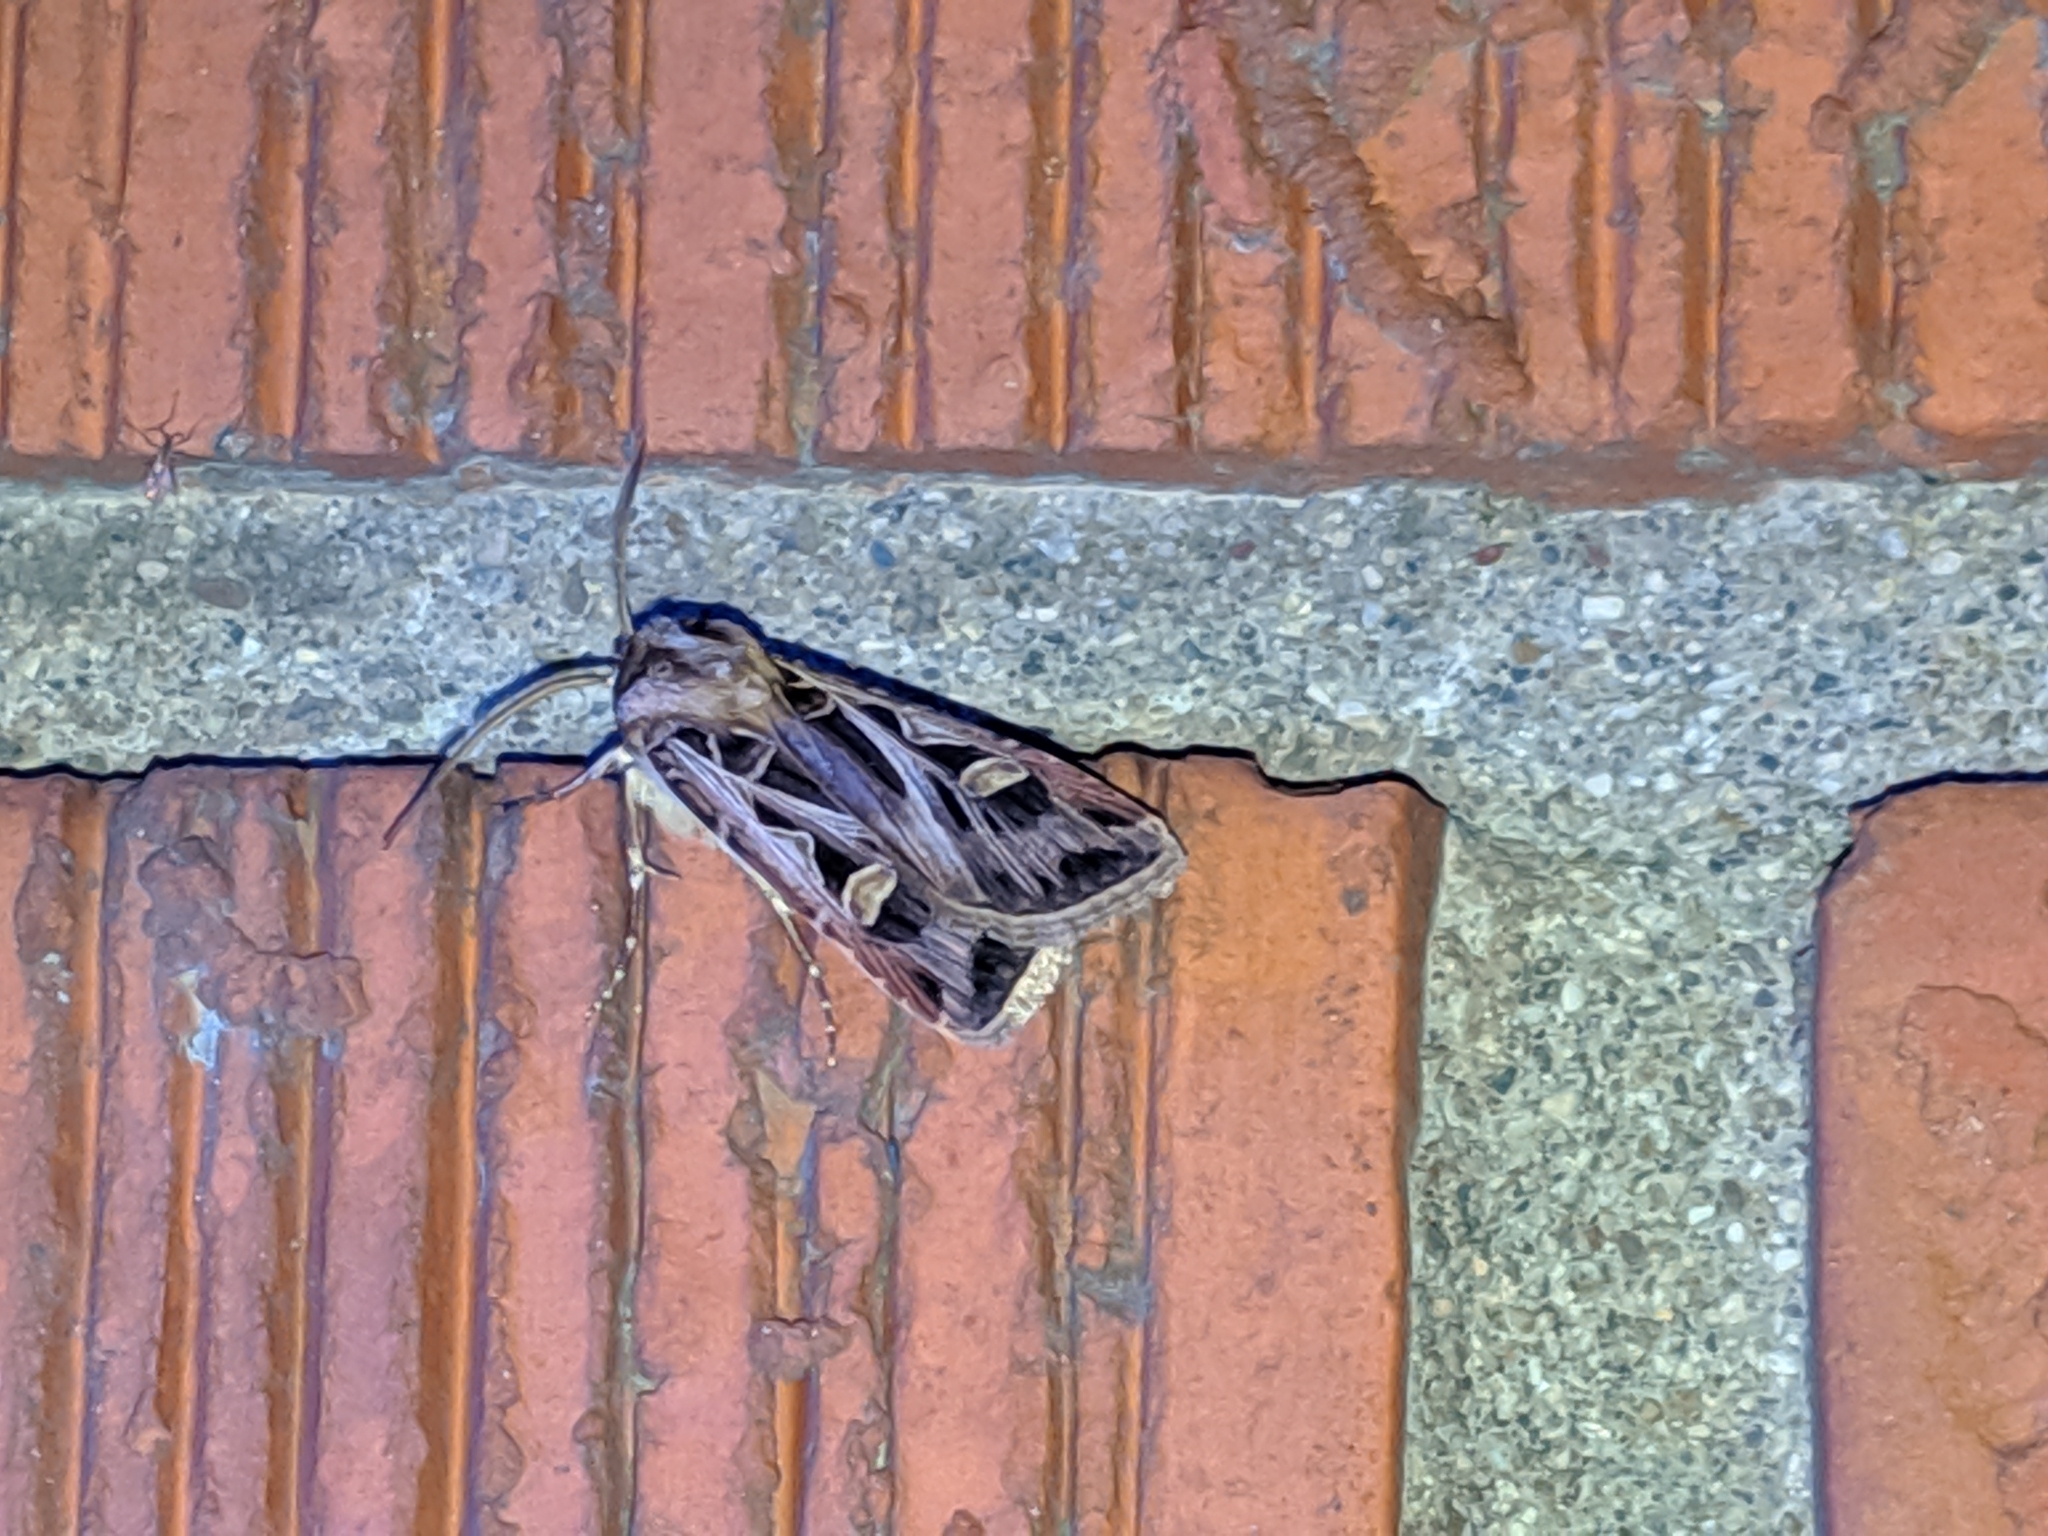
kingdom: Animalia
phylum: Arthropoda
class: Insecta
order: Lepidoptera
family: Noctuidae
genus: Feltia
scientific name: Feltia jaculifera
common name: Dingy cutworm moth
